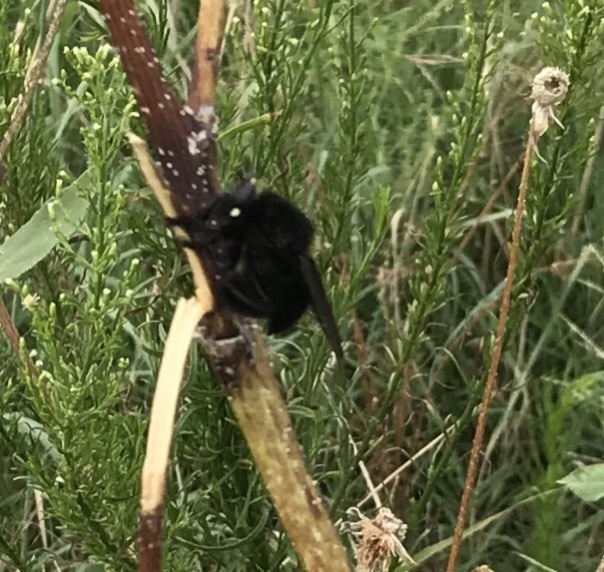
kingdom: Animalia
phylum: Arthropoda
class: Insecta
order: Diptera
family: Asilidae
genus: Mallophora
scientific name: Mallophora leschenaultii
